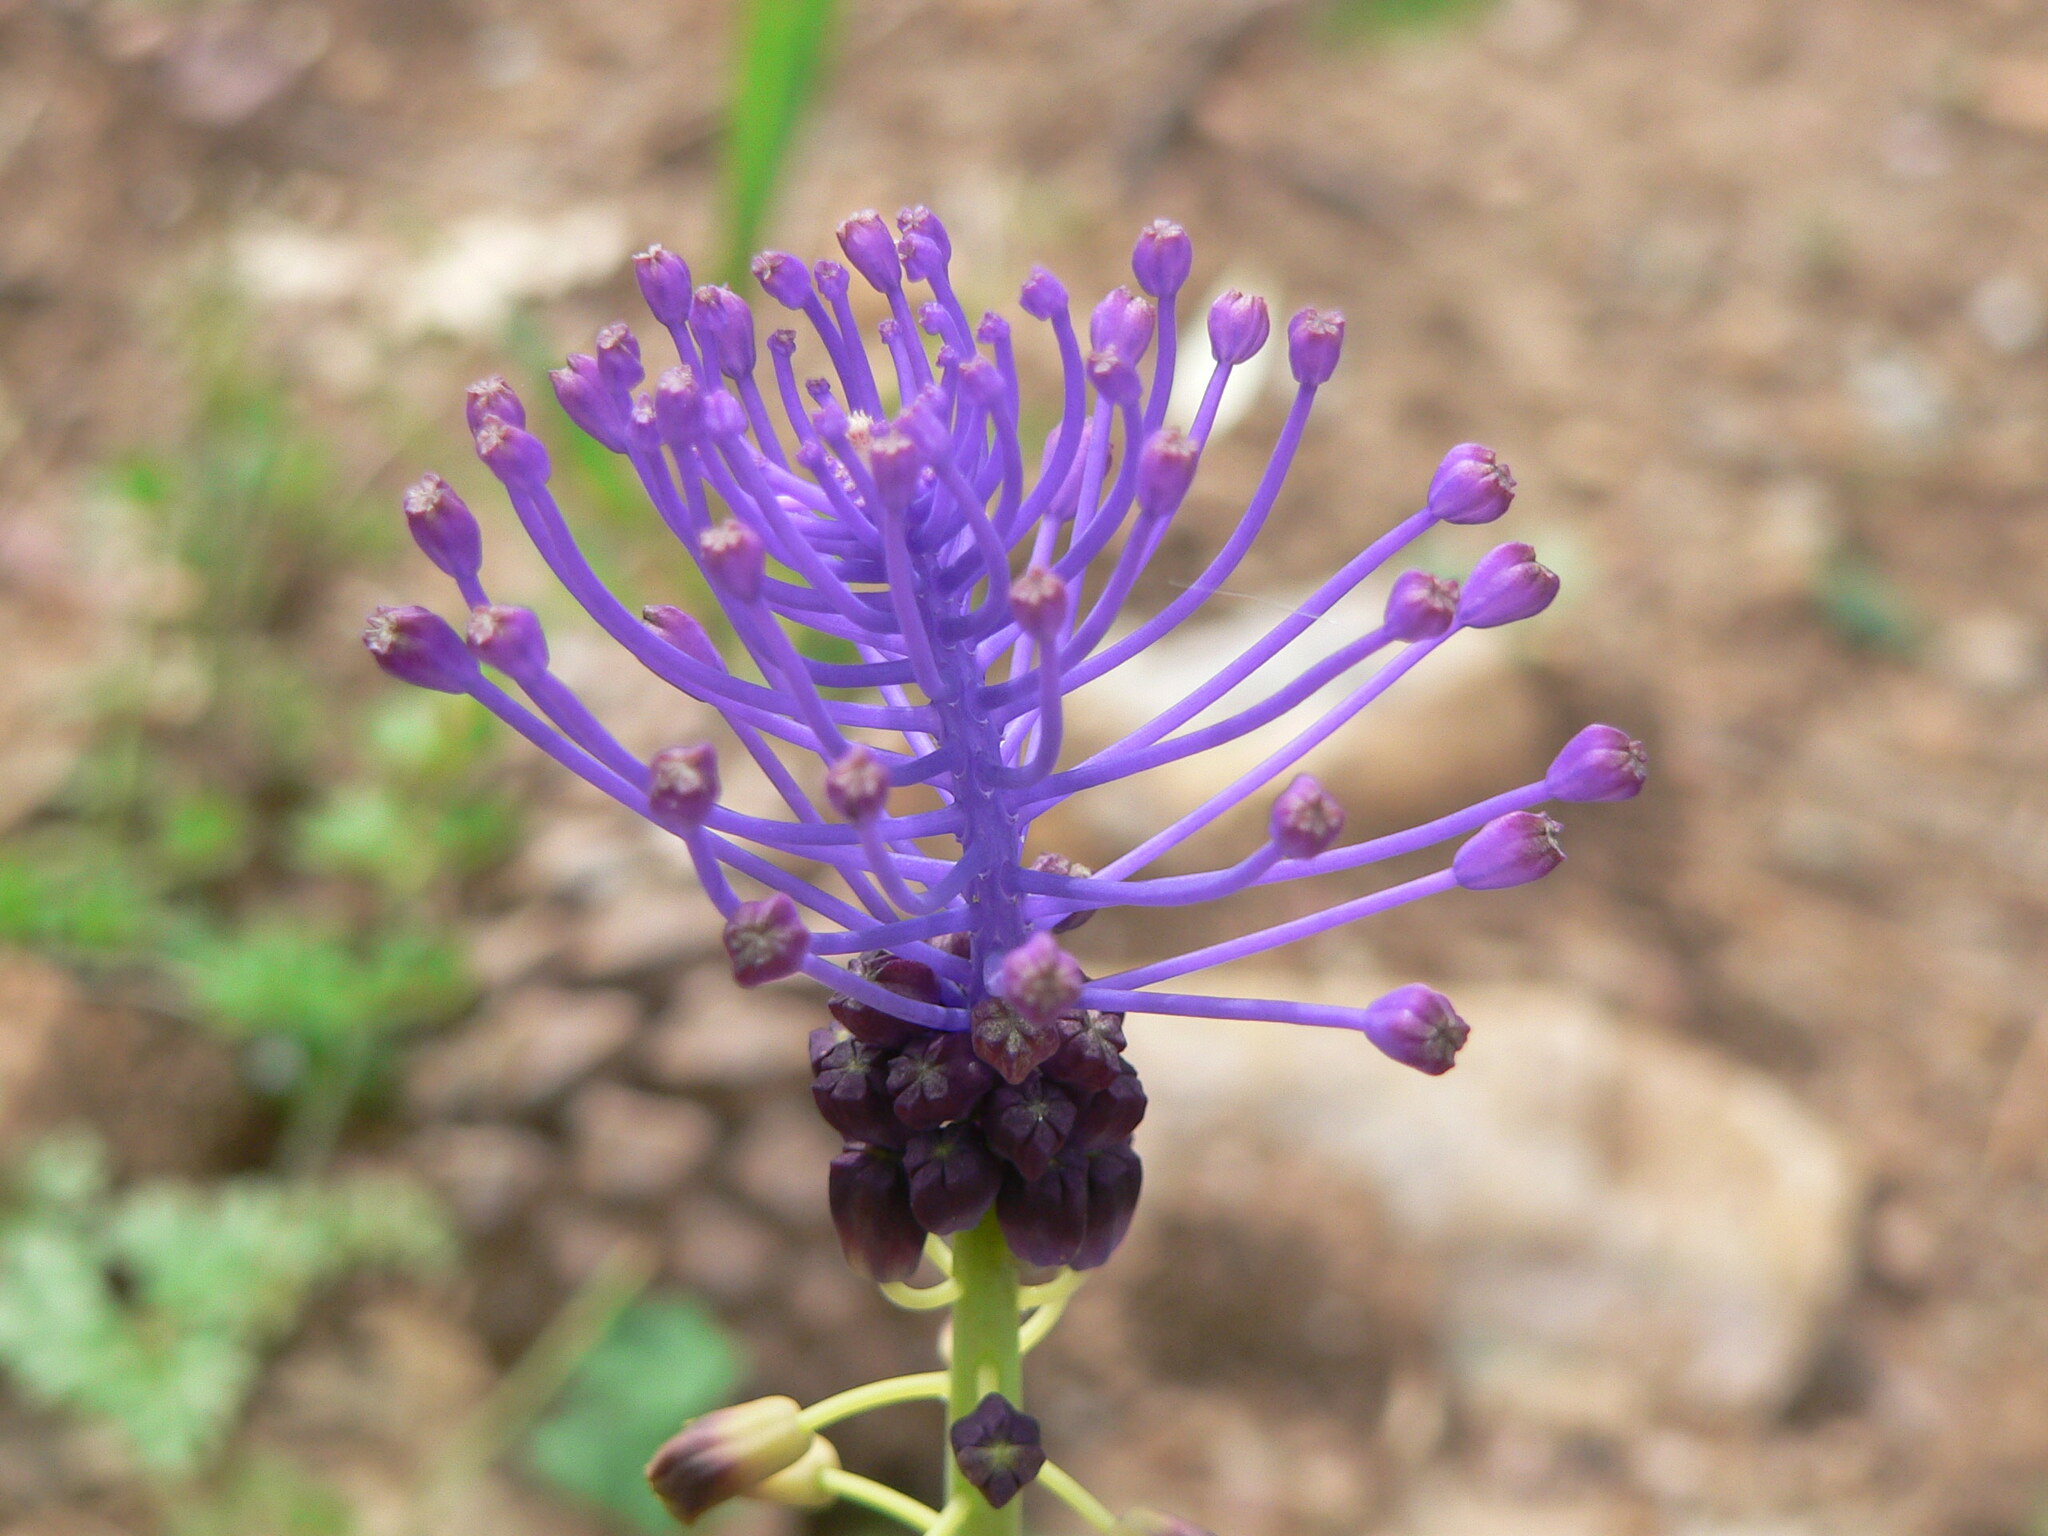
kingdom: Plantae
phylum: Tracheophyta
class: Liliopsida
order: Asparagales
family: Asparagaceae
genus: Muscari
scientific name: Muscari comosum
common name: Tassel hyacinth
